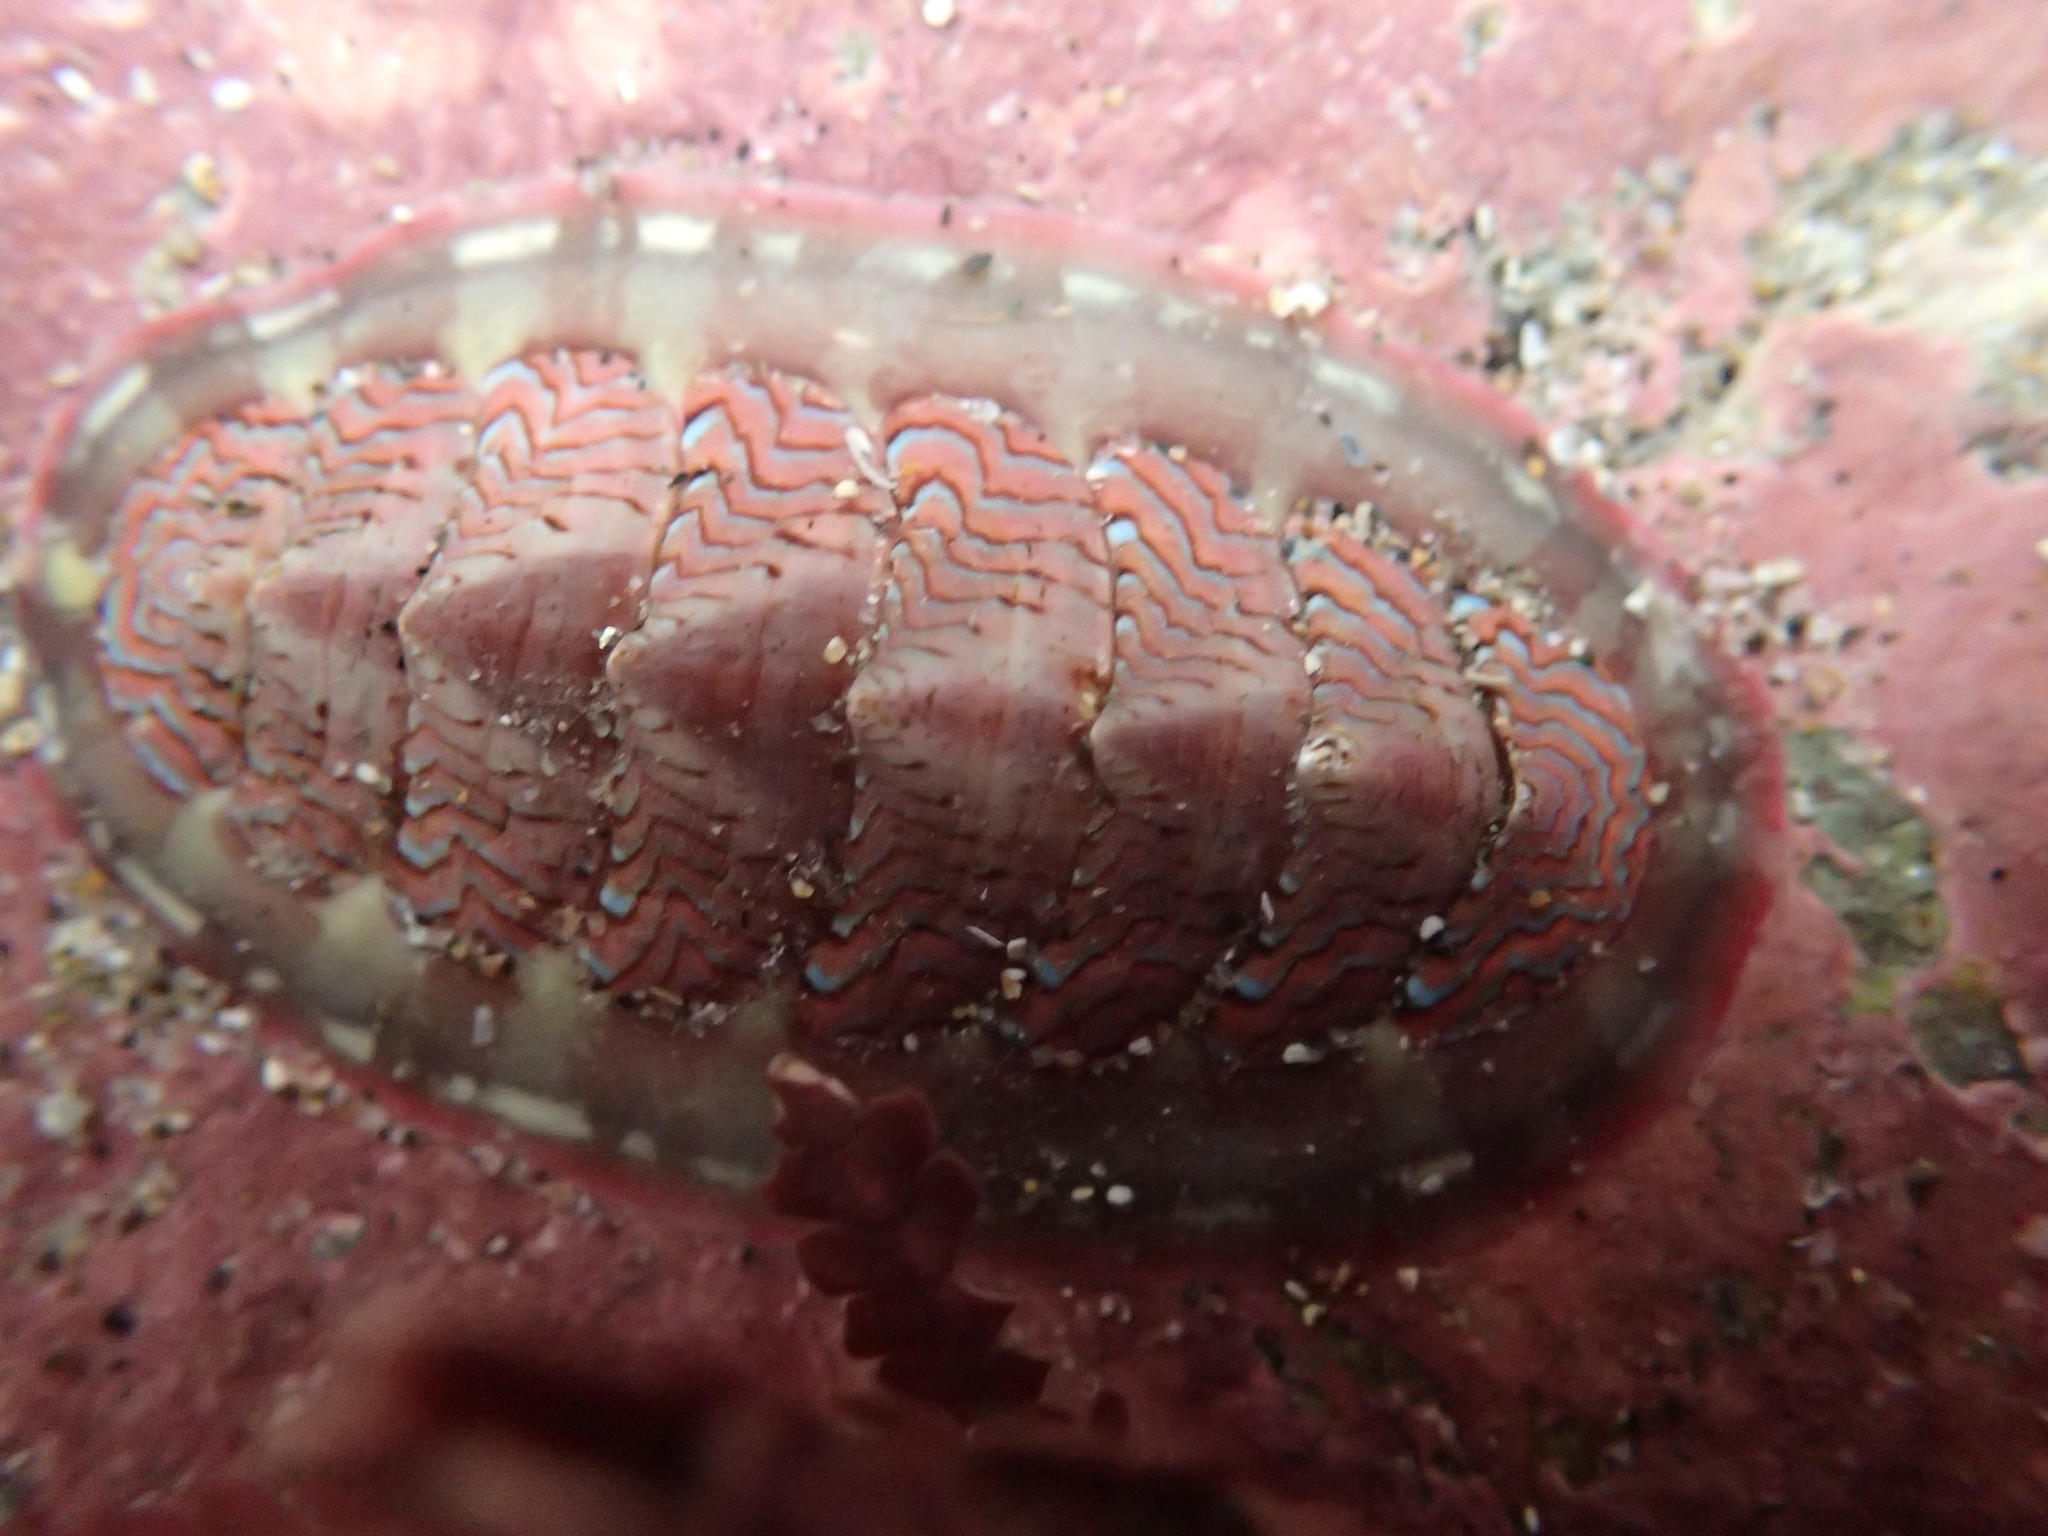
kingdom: Animalia
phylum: Mollusca
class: Polyplacophora
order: Chitonida
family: Tonicellidae
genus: Tonicella
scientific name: Tonicella lokii
